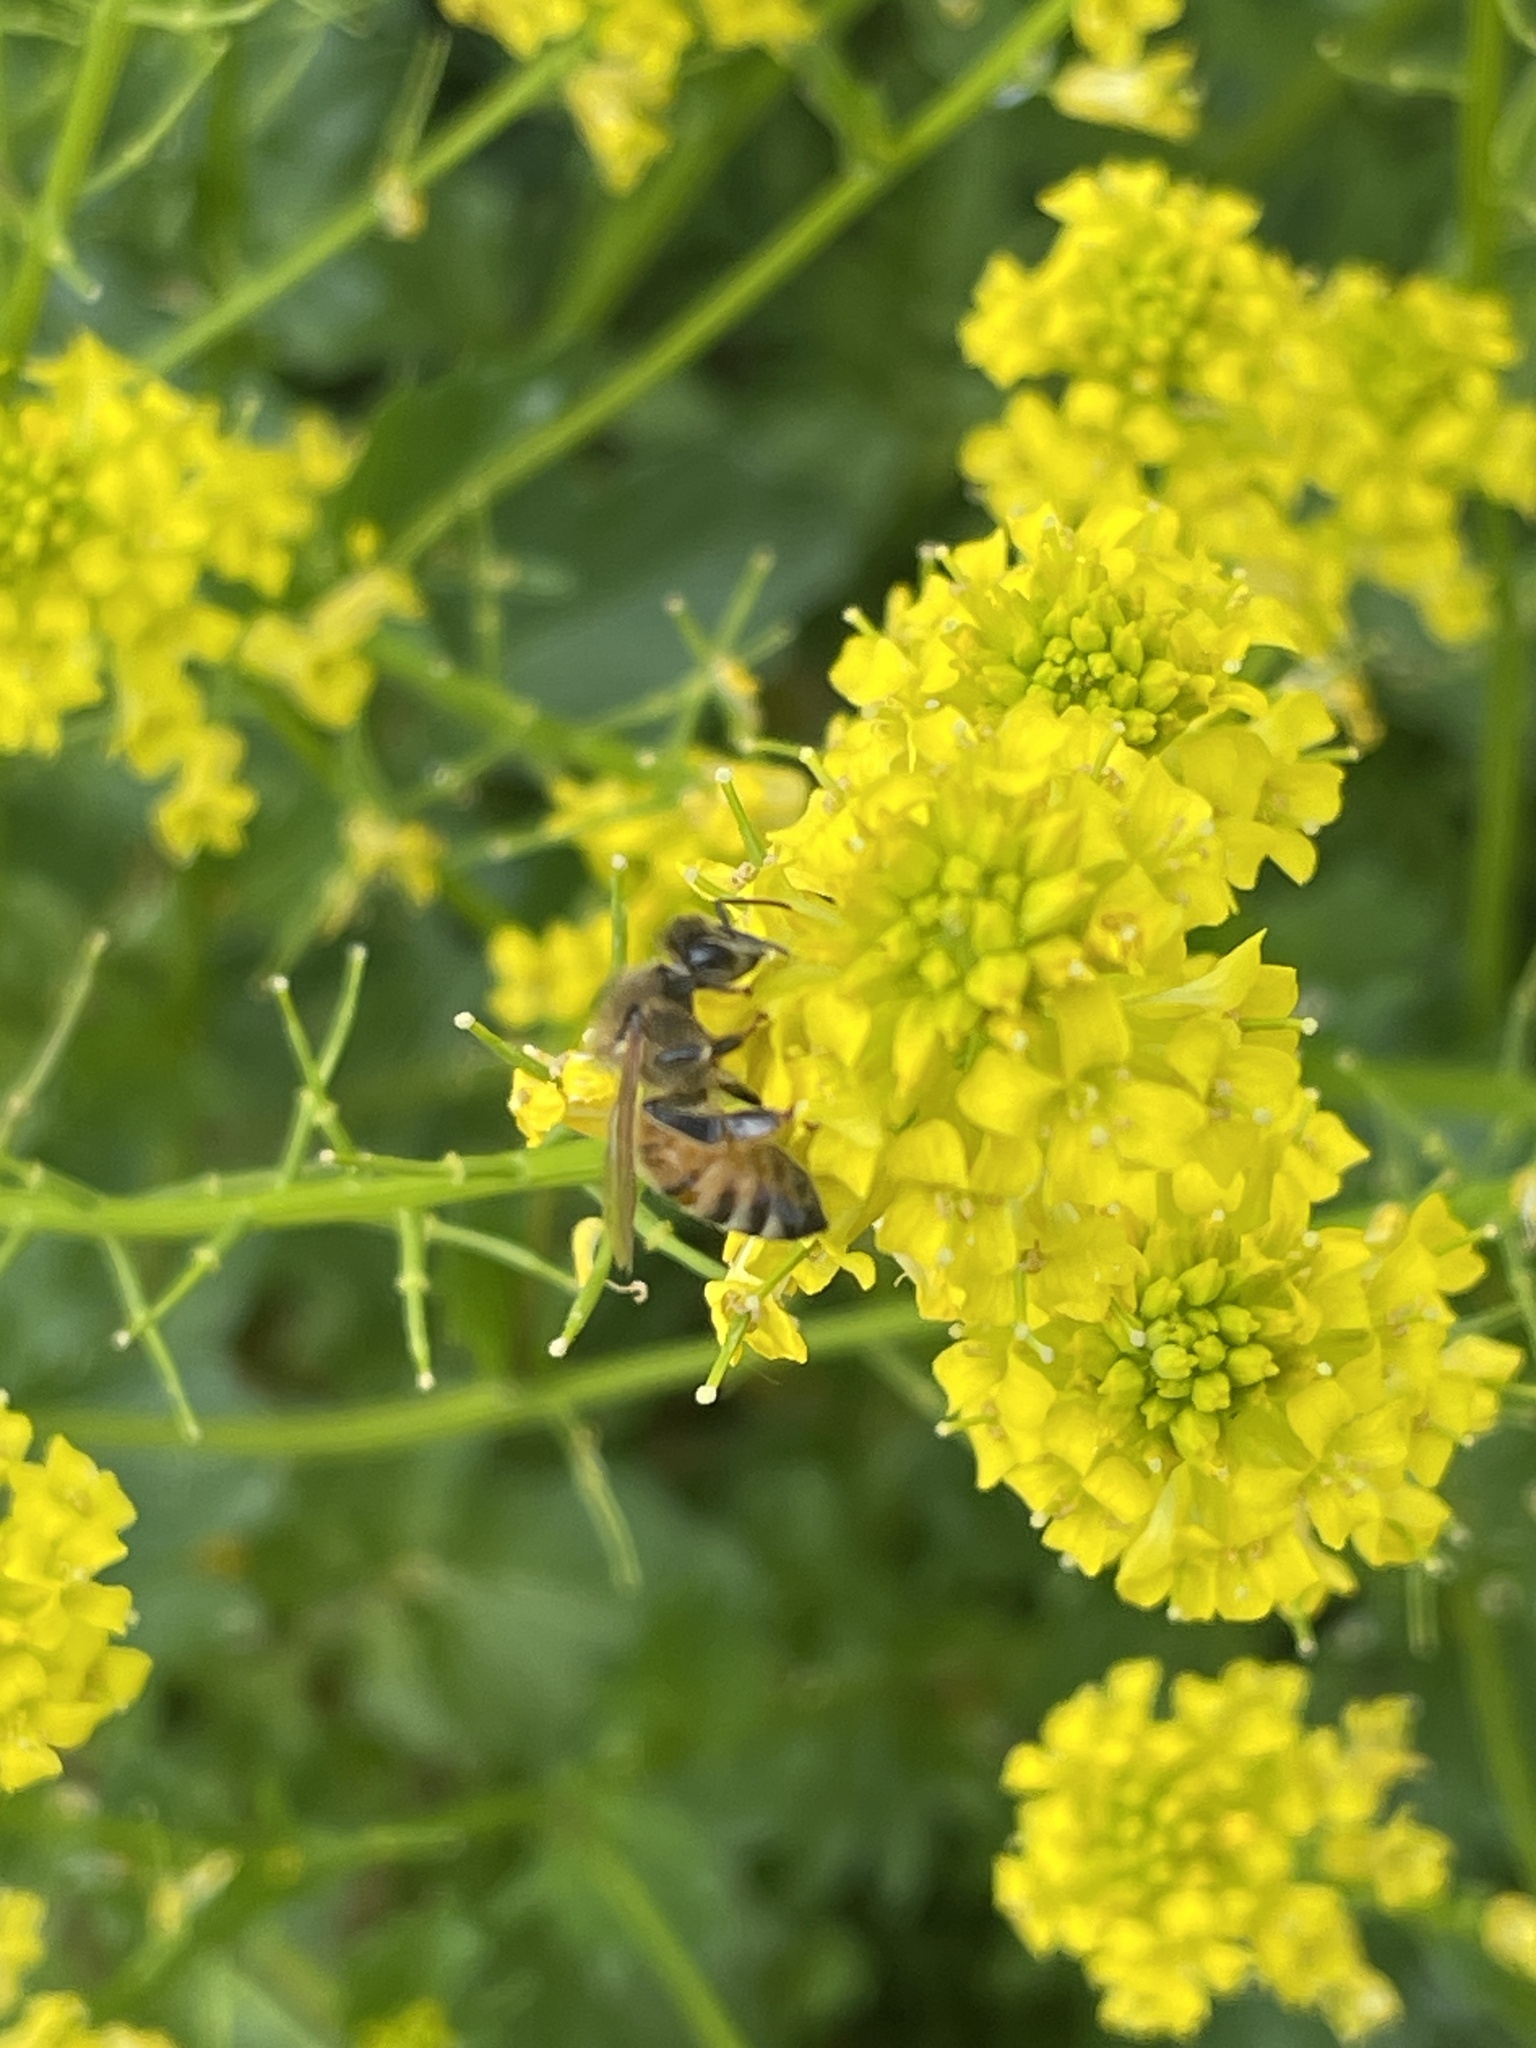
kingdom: Animalia
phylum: Arthropoda
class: Insecta
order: Hymenoptera
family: Apidae
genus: Apis
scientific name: Apis mellifera
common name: Honey bee
